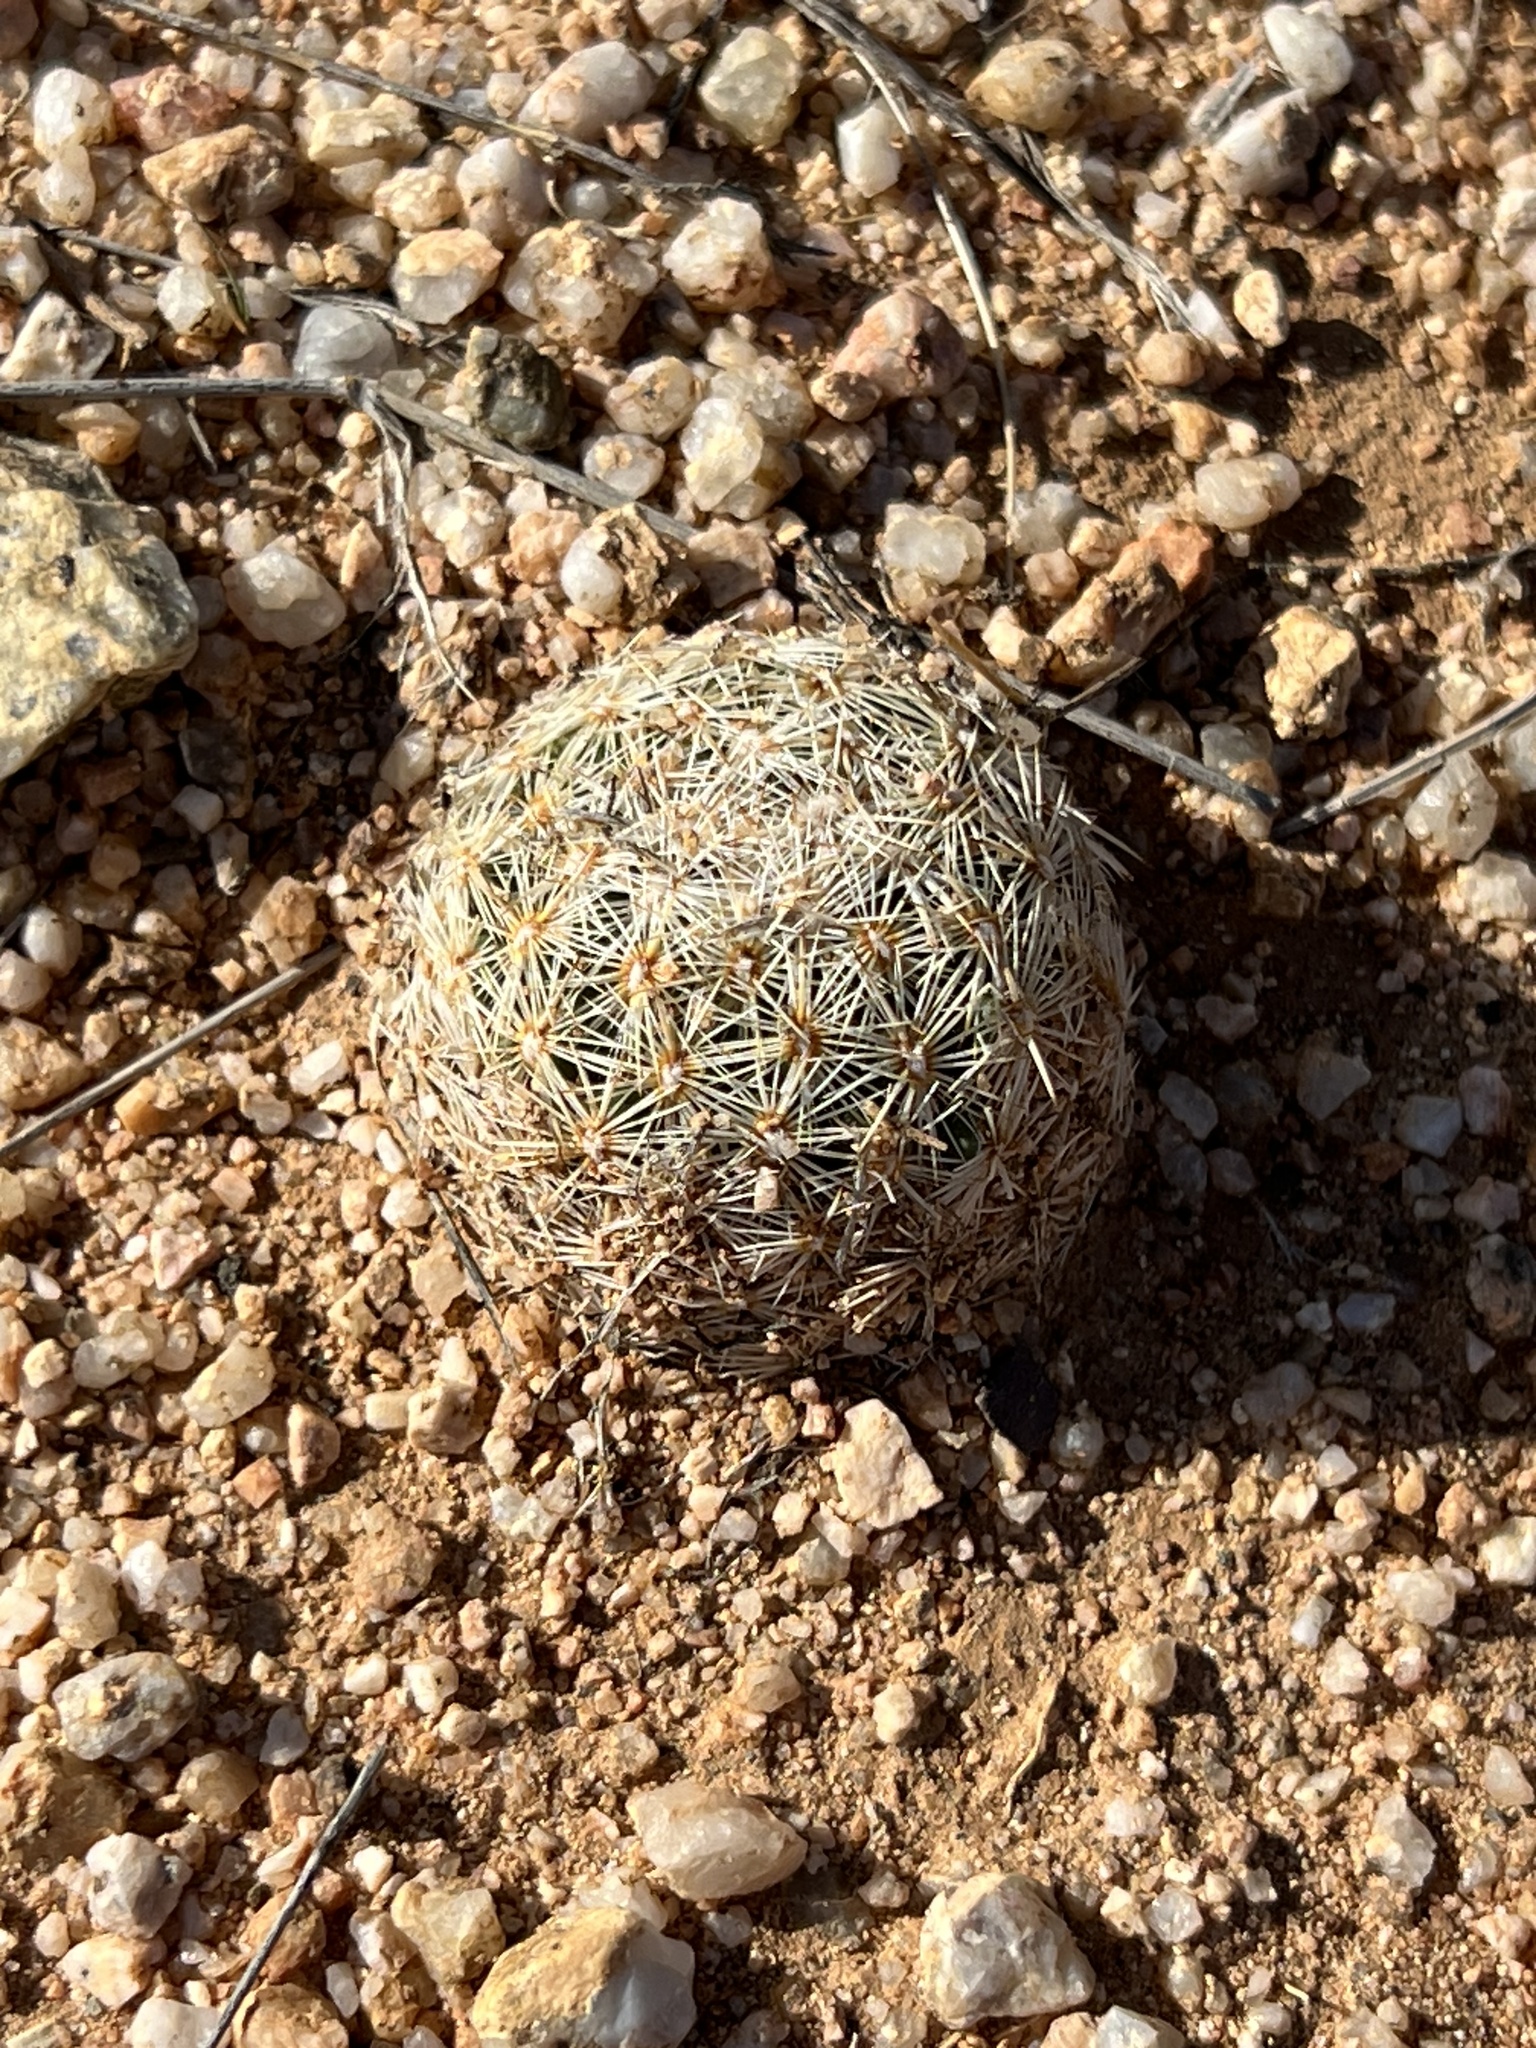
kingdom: Plantae
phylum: Tracheophyta
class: Magnoliopsida
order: Caryophyllales
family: Cactaceae
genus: Pelecyphora
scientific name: Pelecyphora vivipara
